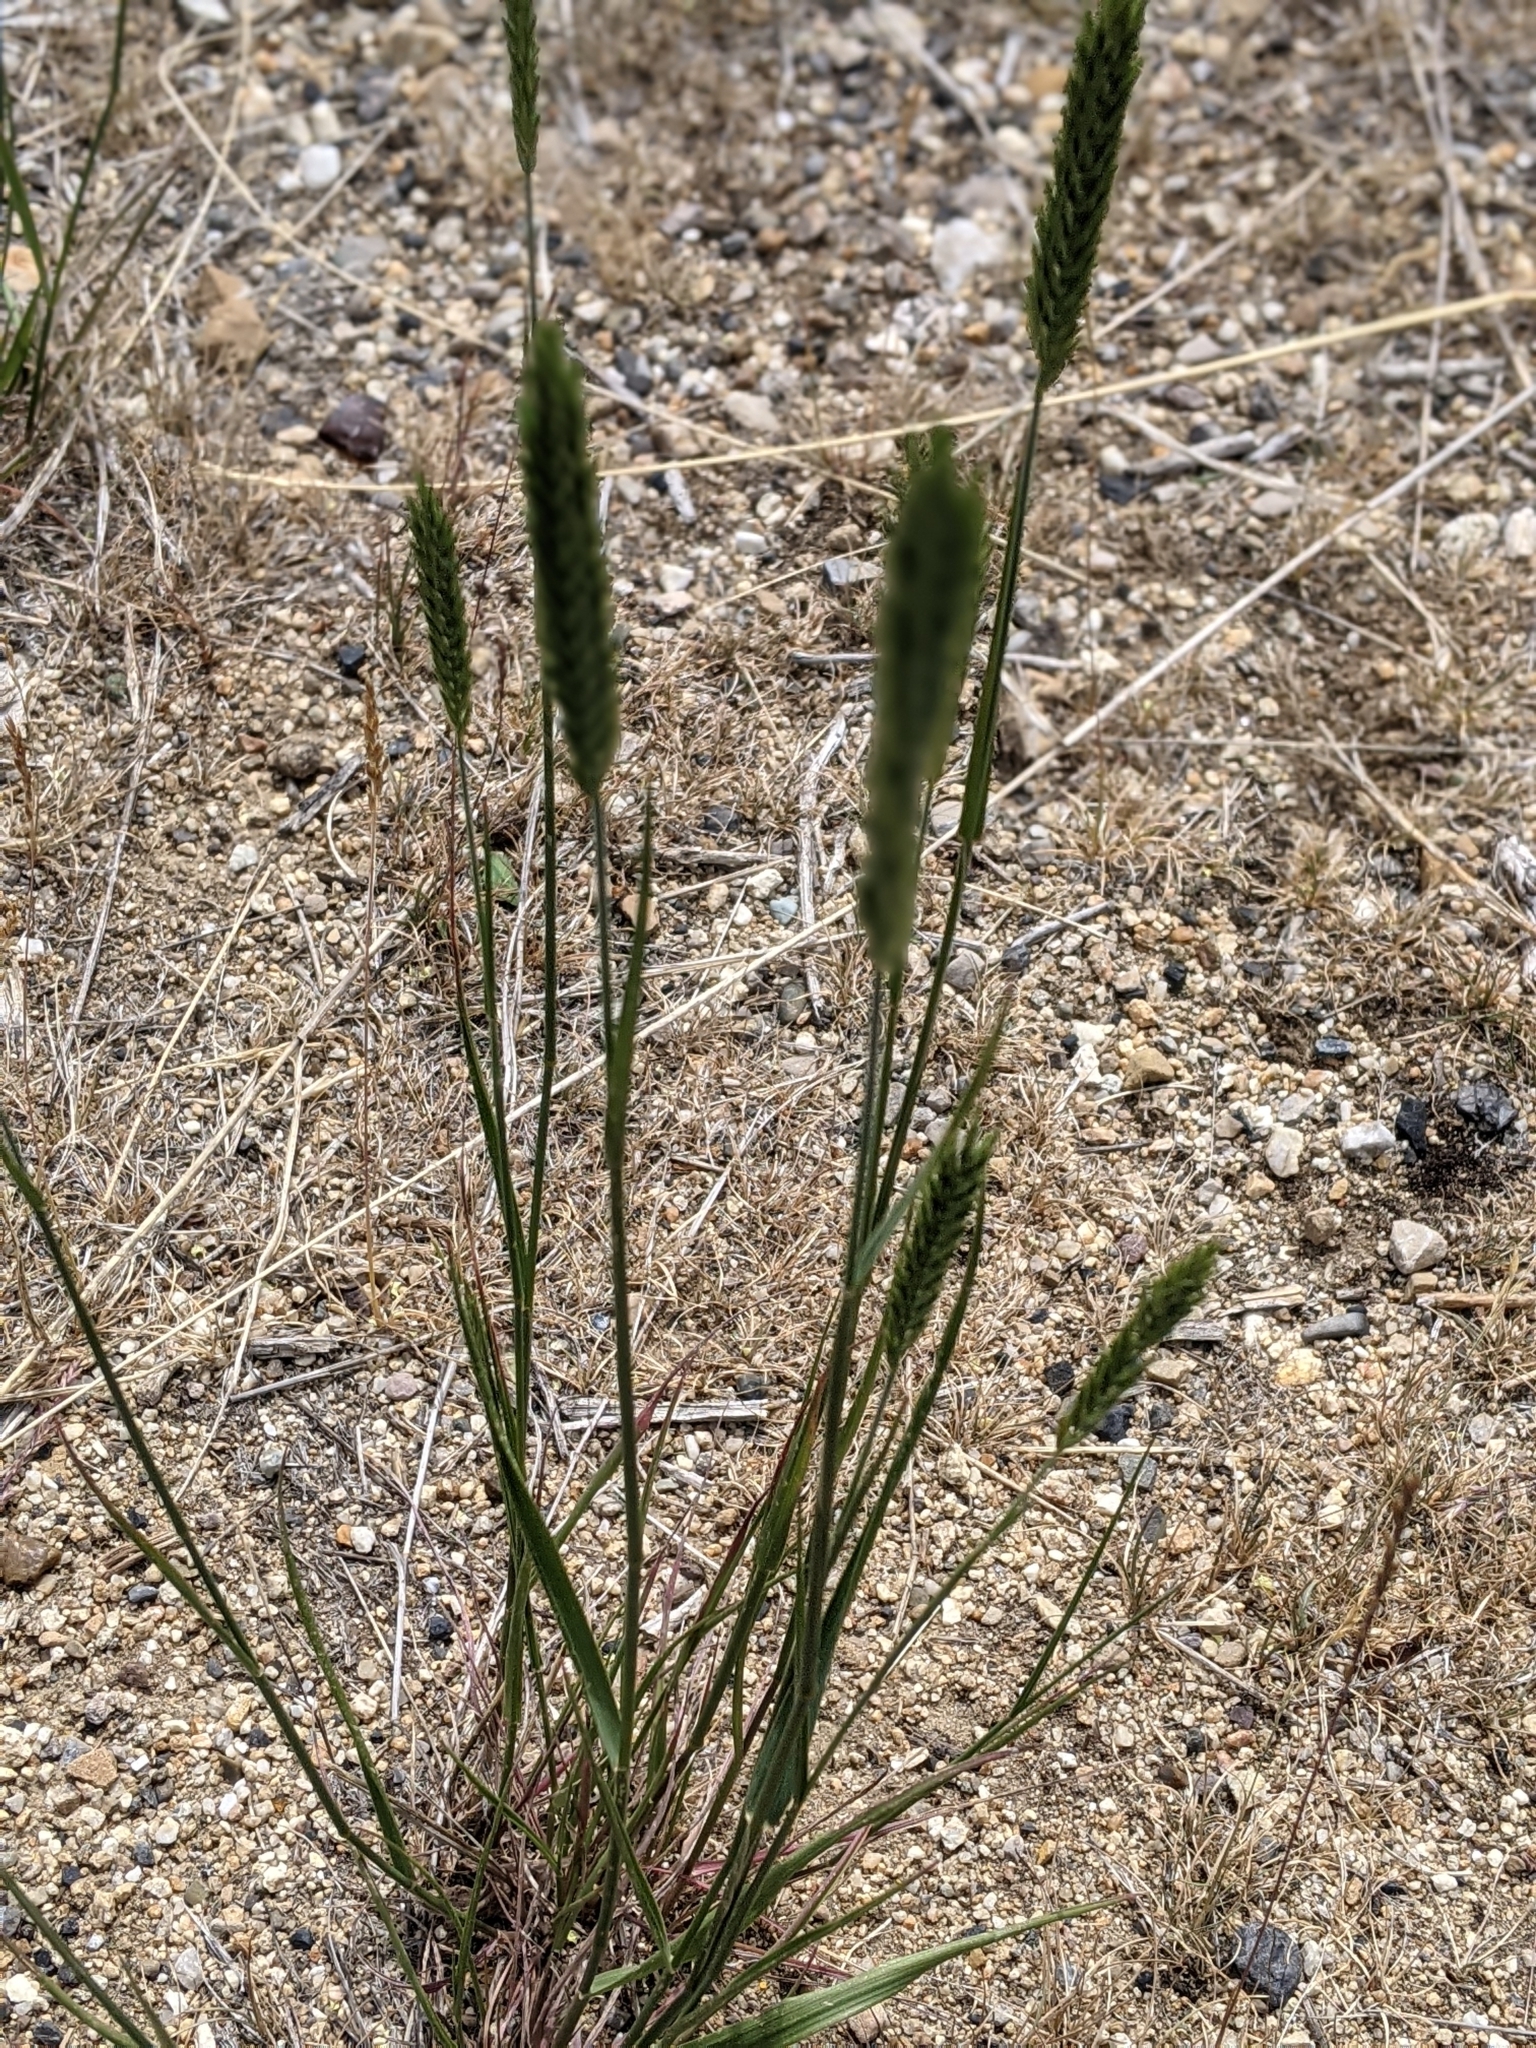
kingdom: Plantae
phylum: Tracheophyta
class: Liliopsida
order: Poales
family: Poaceae
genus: Agropyron
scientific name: Agropyron cristatum
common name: Crested wheatgrass
